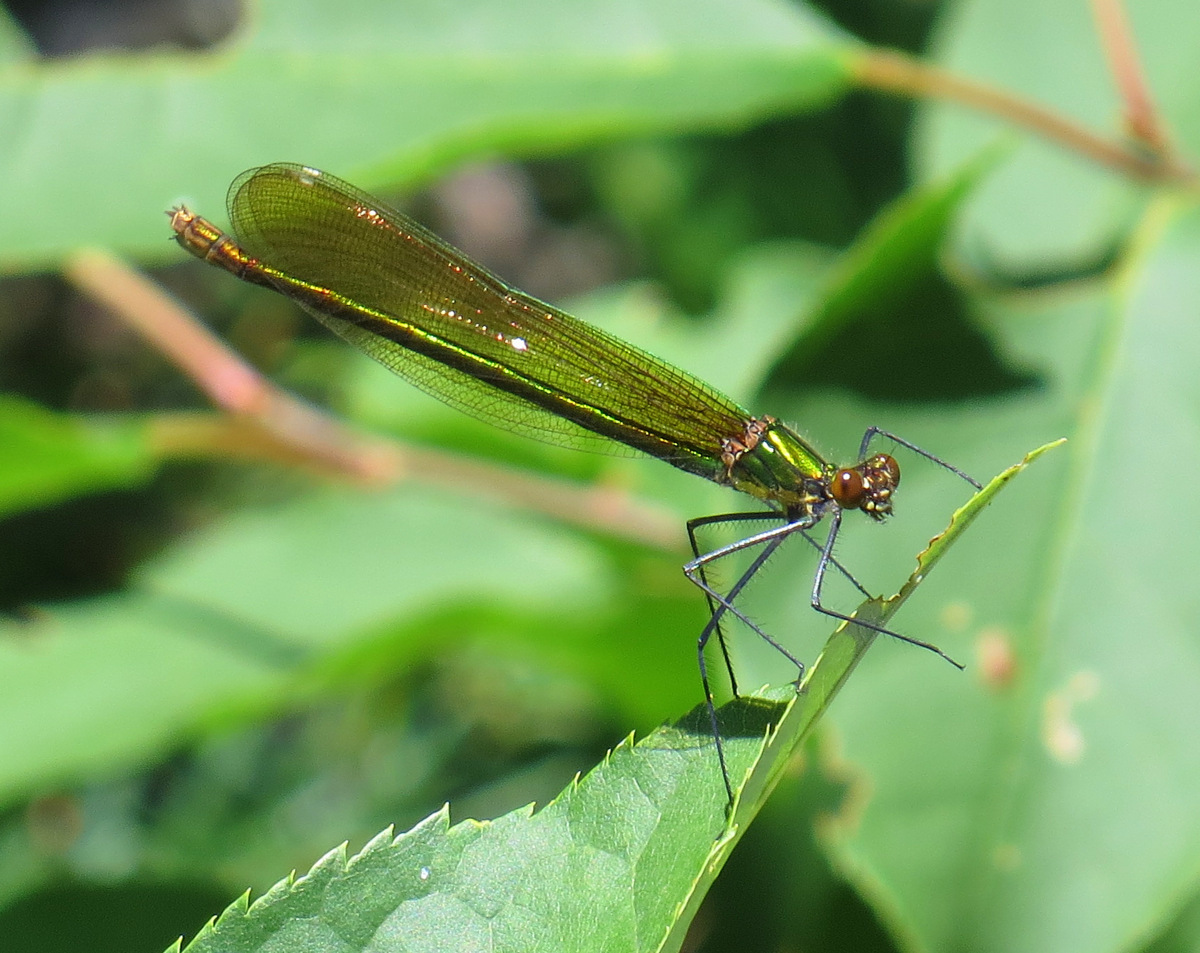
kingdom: Animalia
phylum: Arthropoda
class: Insecta
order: Odonata
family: Calopterygidae
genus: Calopteryx
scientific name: Calopteryx amata
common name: Superb jewelwing
